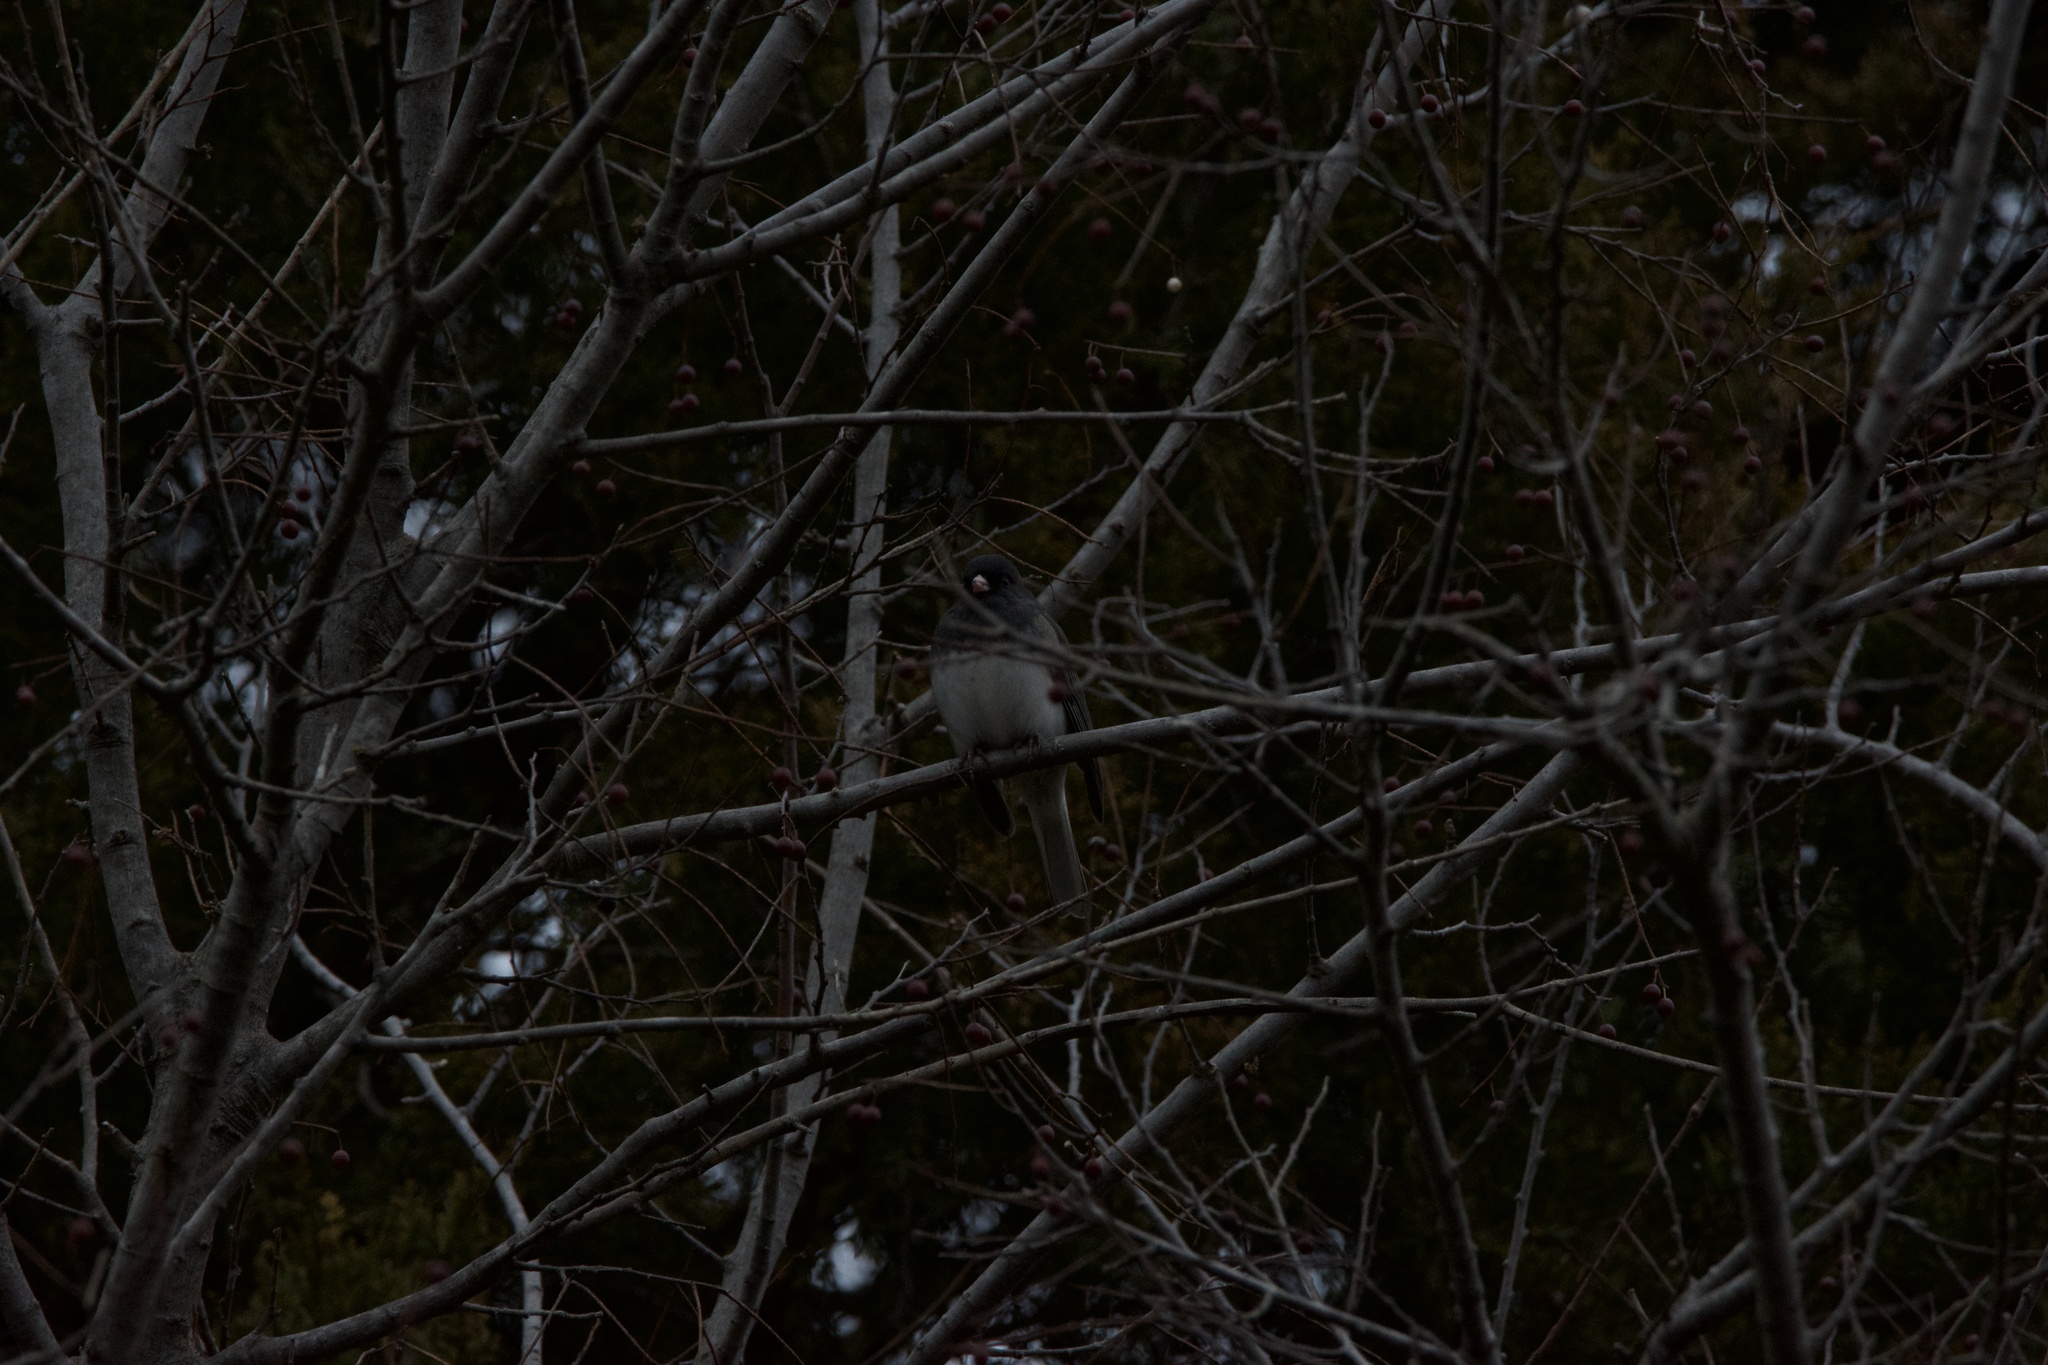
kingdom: Animalia
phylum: Chordata
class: Aves
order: Passeriformes
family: Passerellidae
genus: Junco
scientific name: Junco hyemalis
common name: Dark-eyed junco
